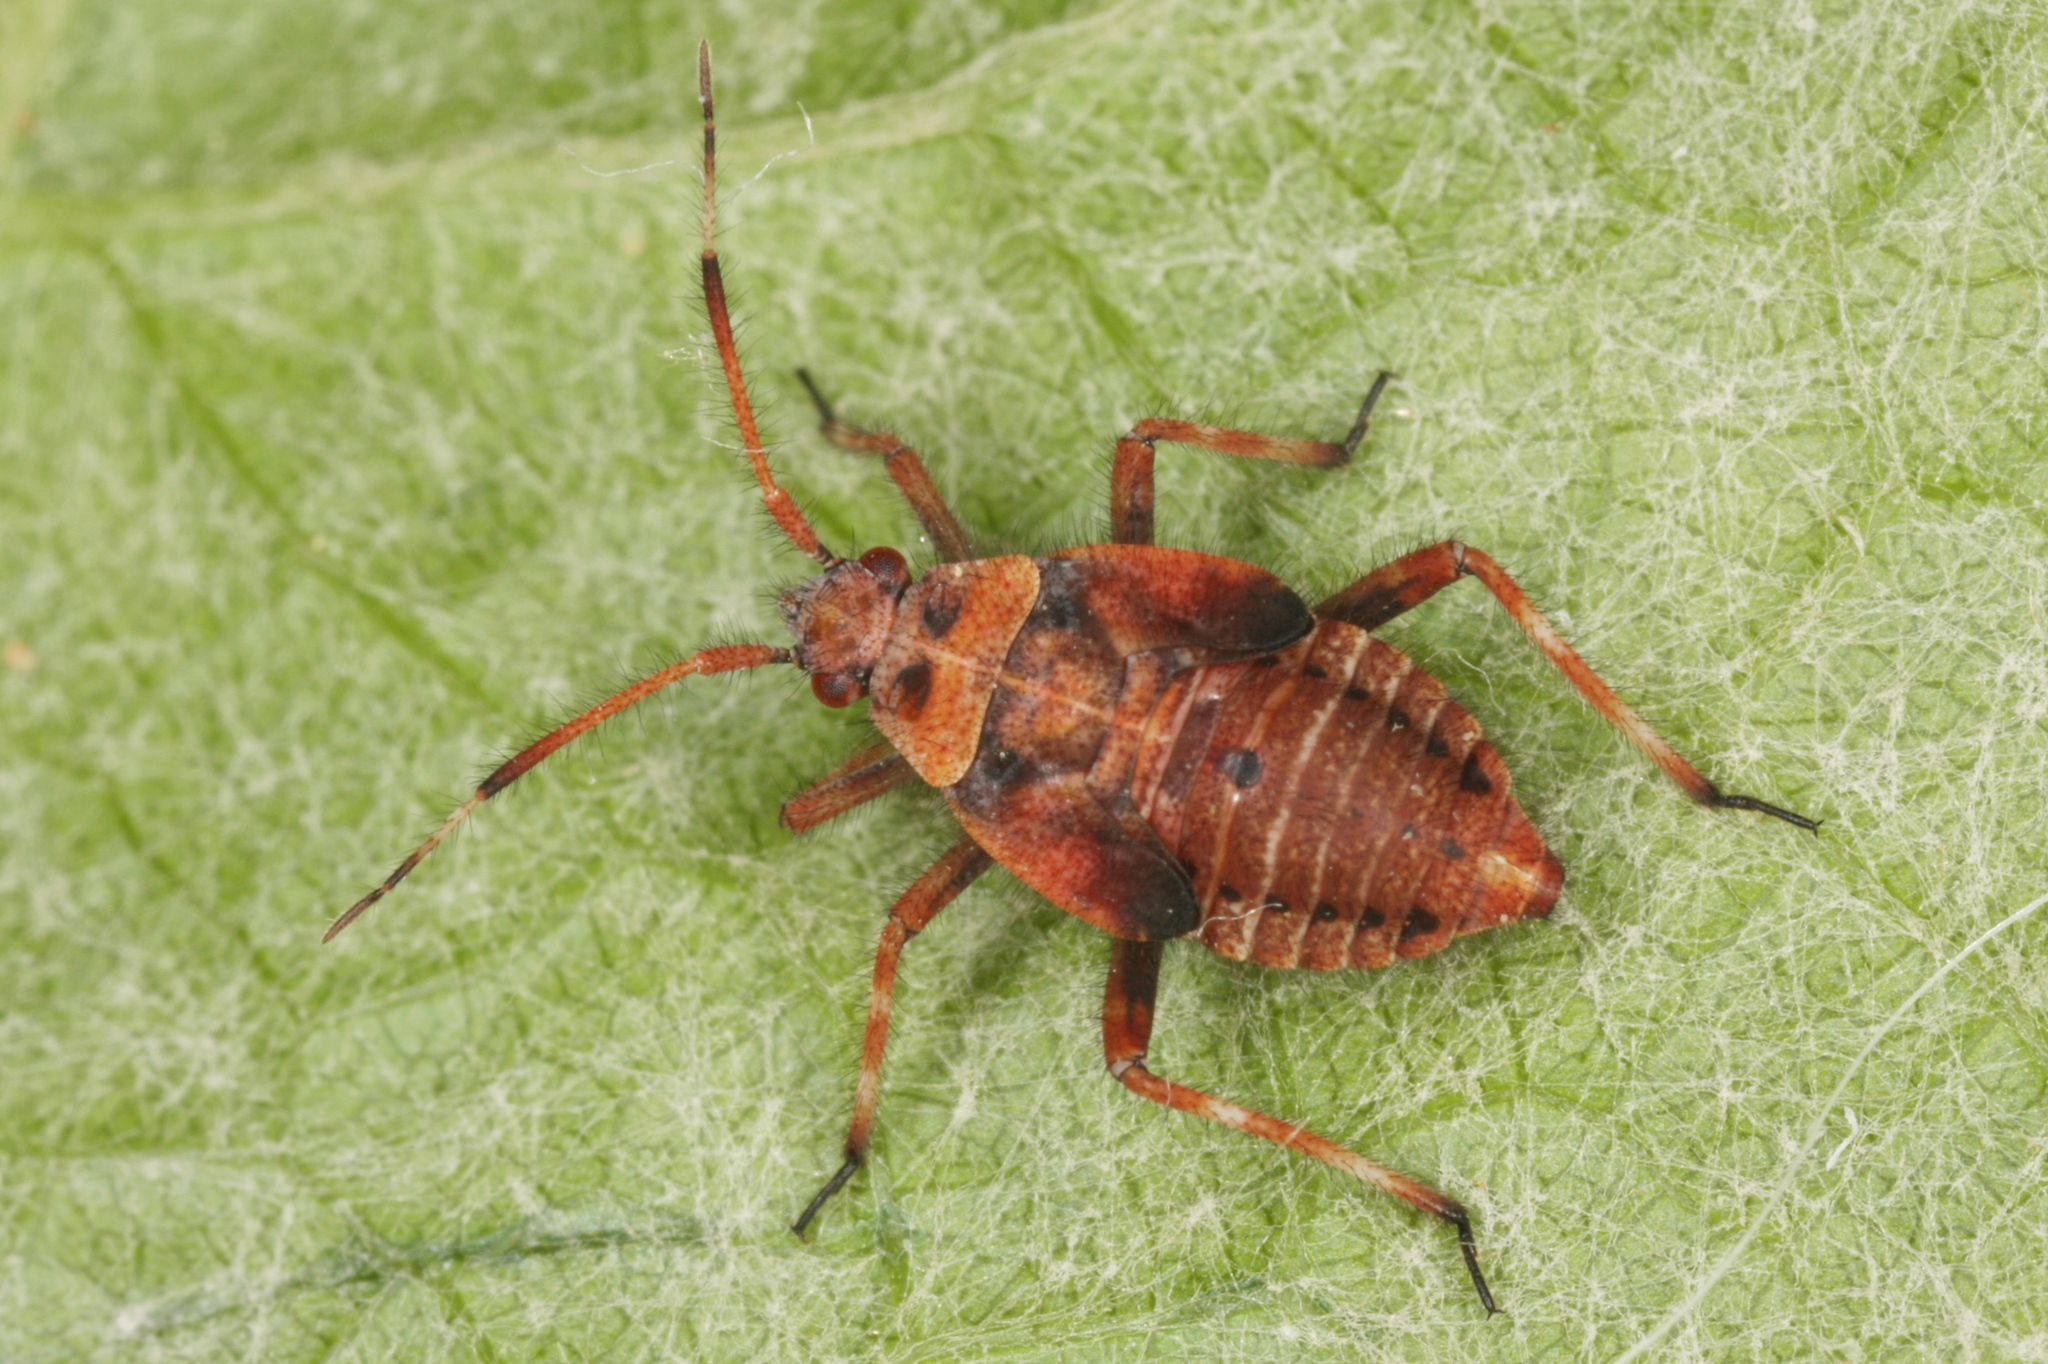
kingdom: Animalia
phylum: Arthropoda
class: Insecta
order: Hemiptera
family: Miridae
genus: Deraeocoris
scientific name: Deraeocoris olivaceus
